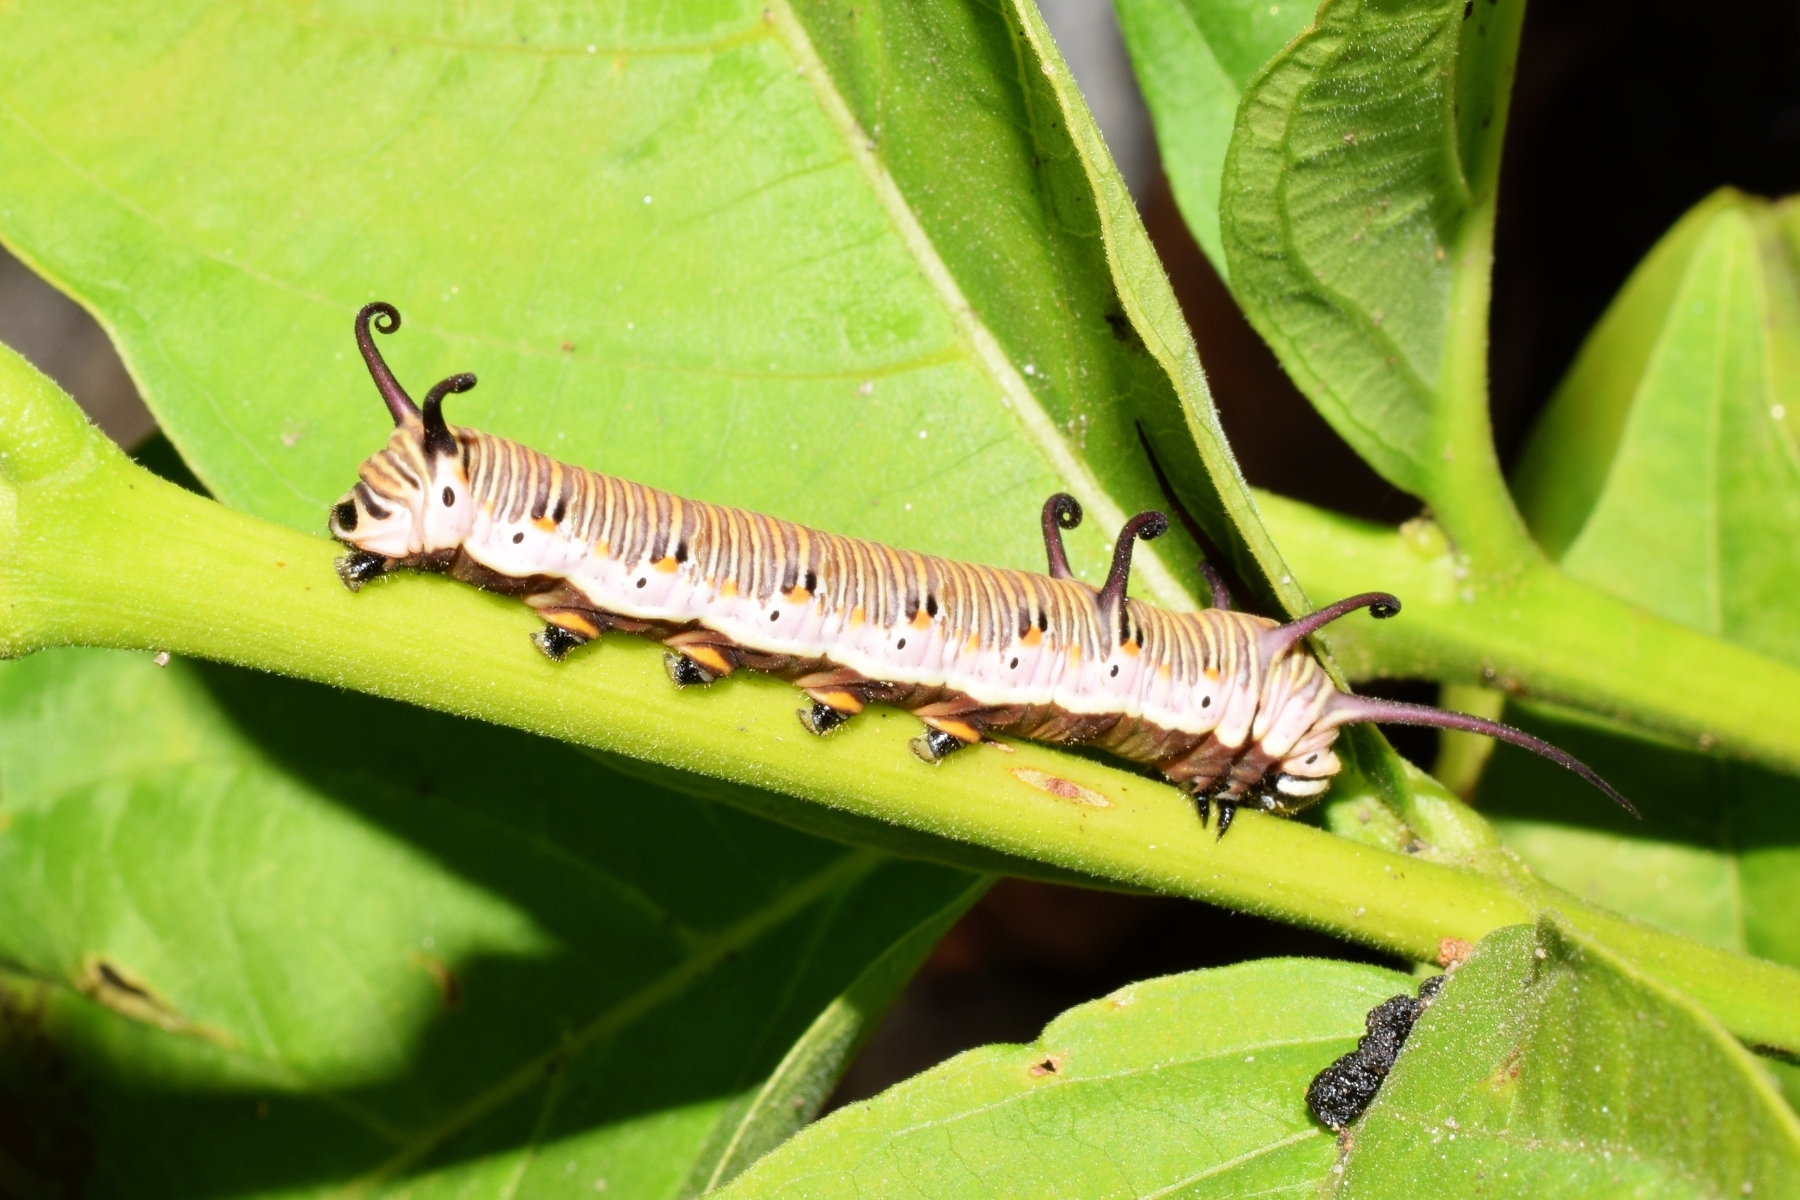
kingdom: Animalia
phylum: Arthropoda
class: Insecta
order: Lepidoptera
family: Nymphalidae
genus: Euploea
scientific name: Euploea core
